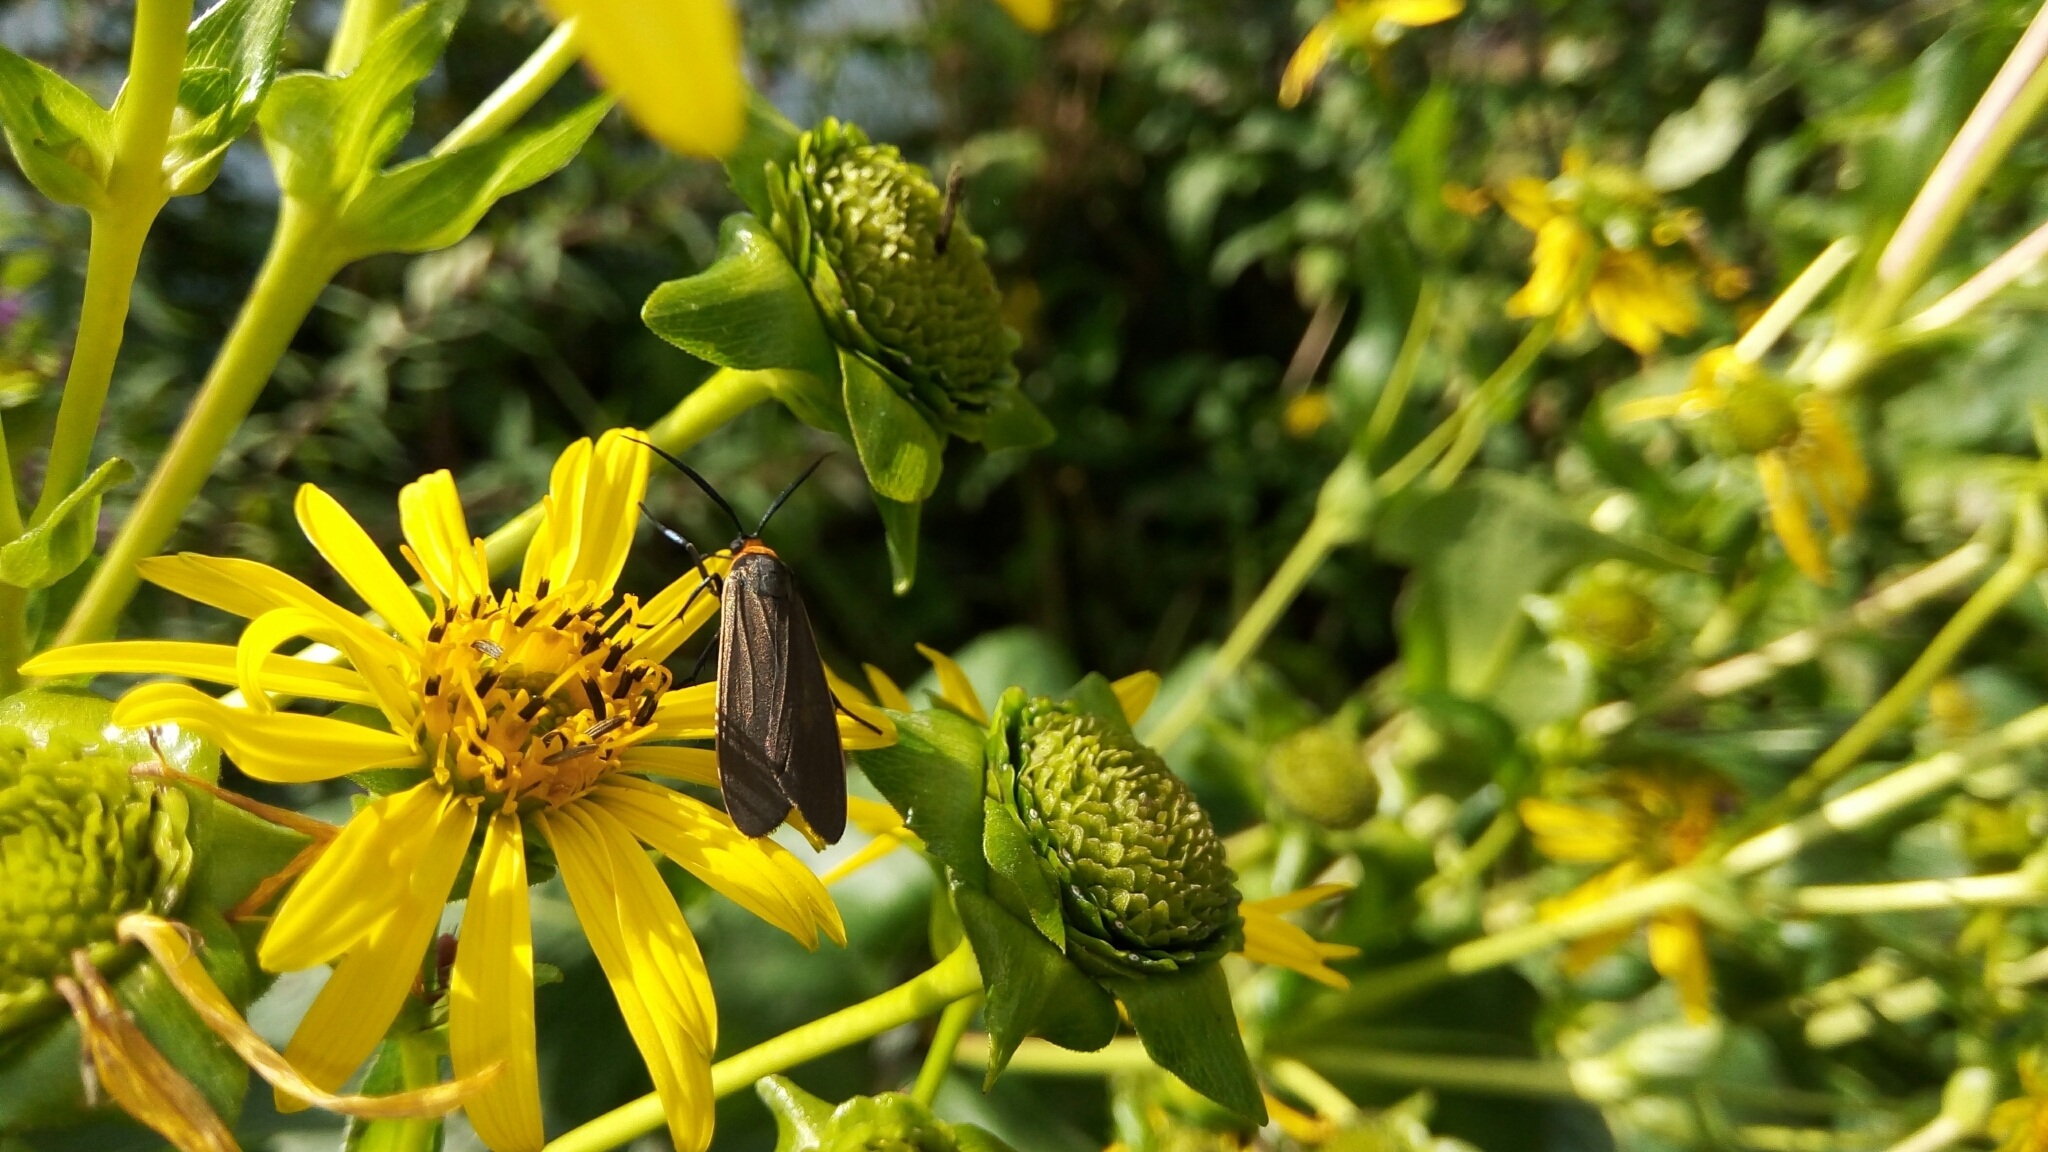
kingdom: Animalia
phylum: Arthropoda
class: Insecta
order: Lepidoptera
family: Erebidae
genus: Cisseps
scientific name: Cisseps fulvicollis
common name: Yellow-collared scape moth
